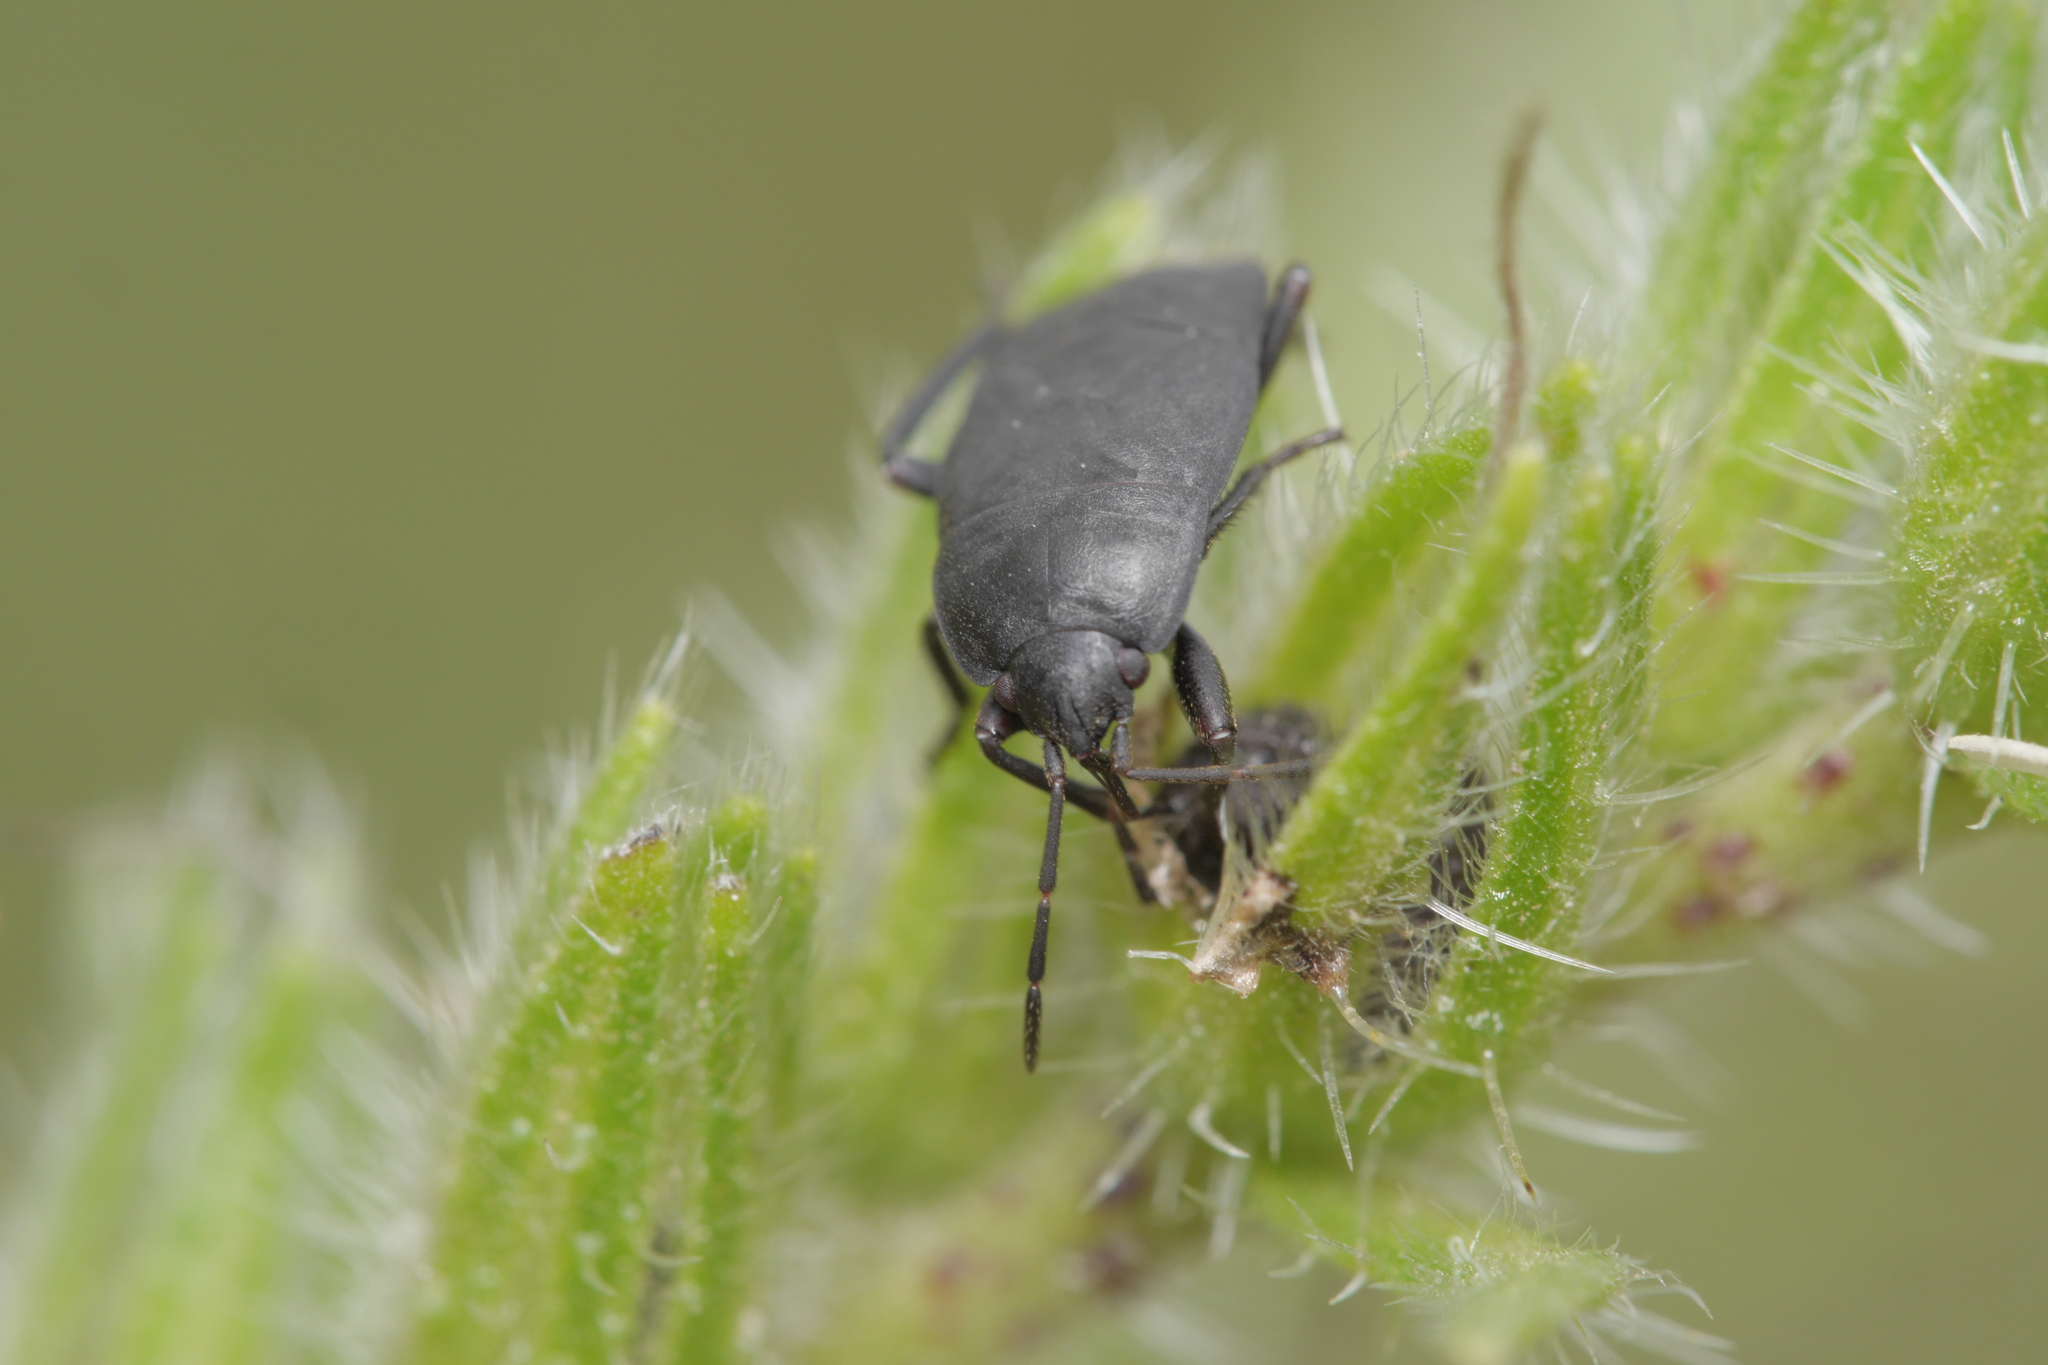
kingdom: Animalia
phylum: Arthropoda
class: Insecta
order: Hemiptera
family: Rhyparochromidae
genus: Aellopus
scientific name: Aellopus atratus
